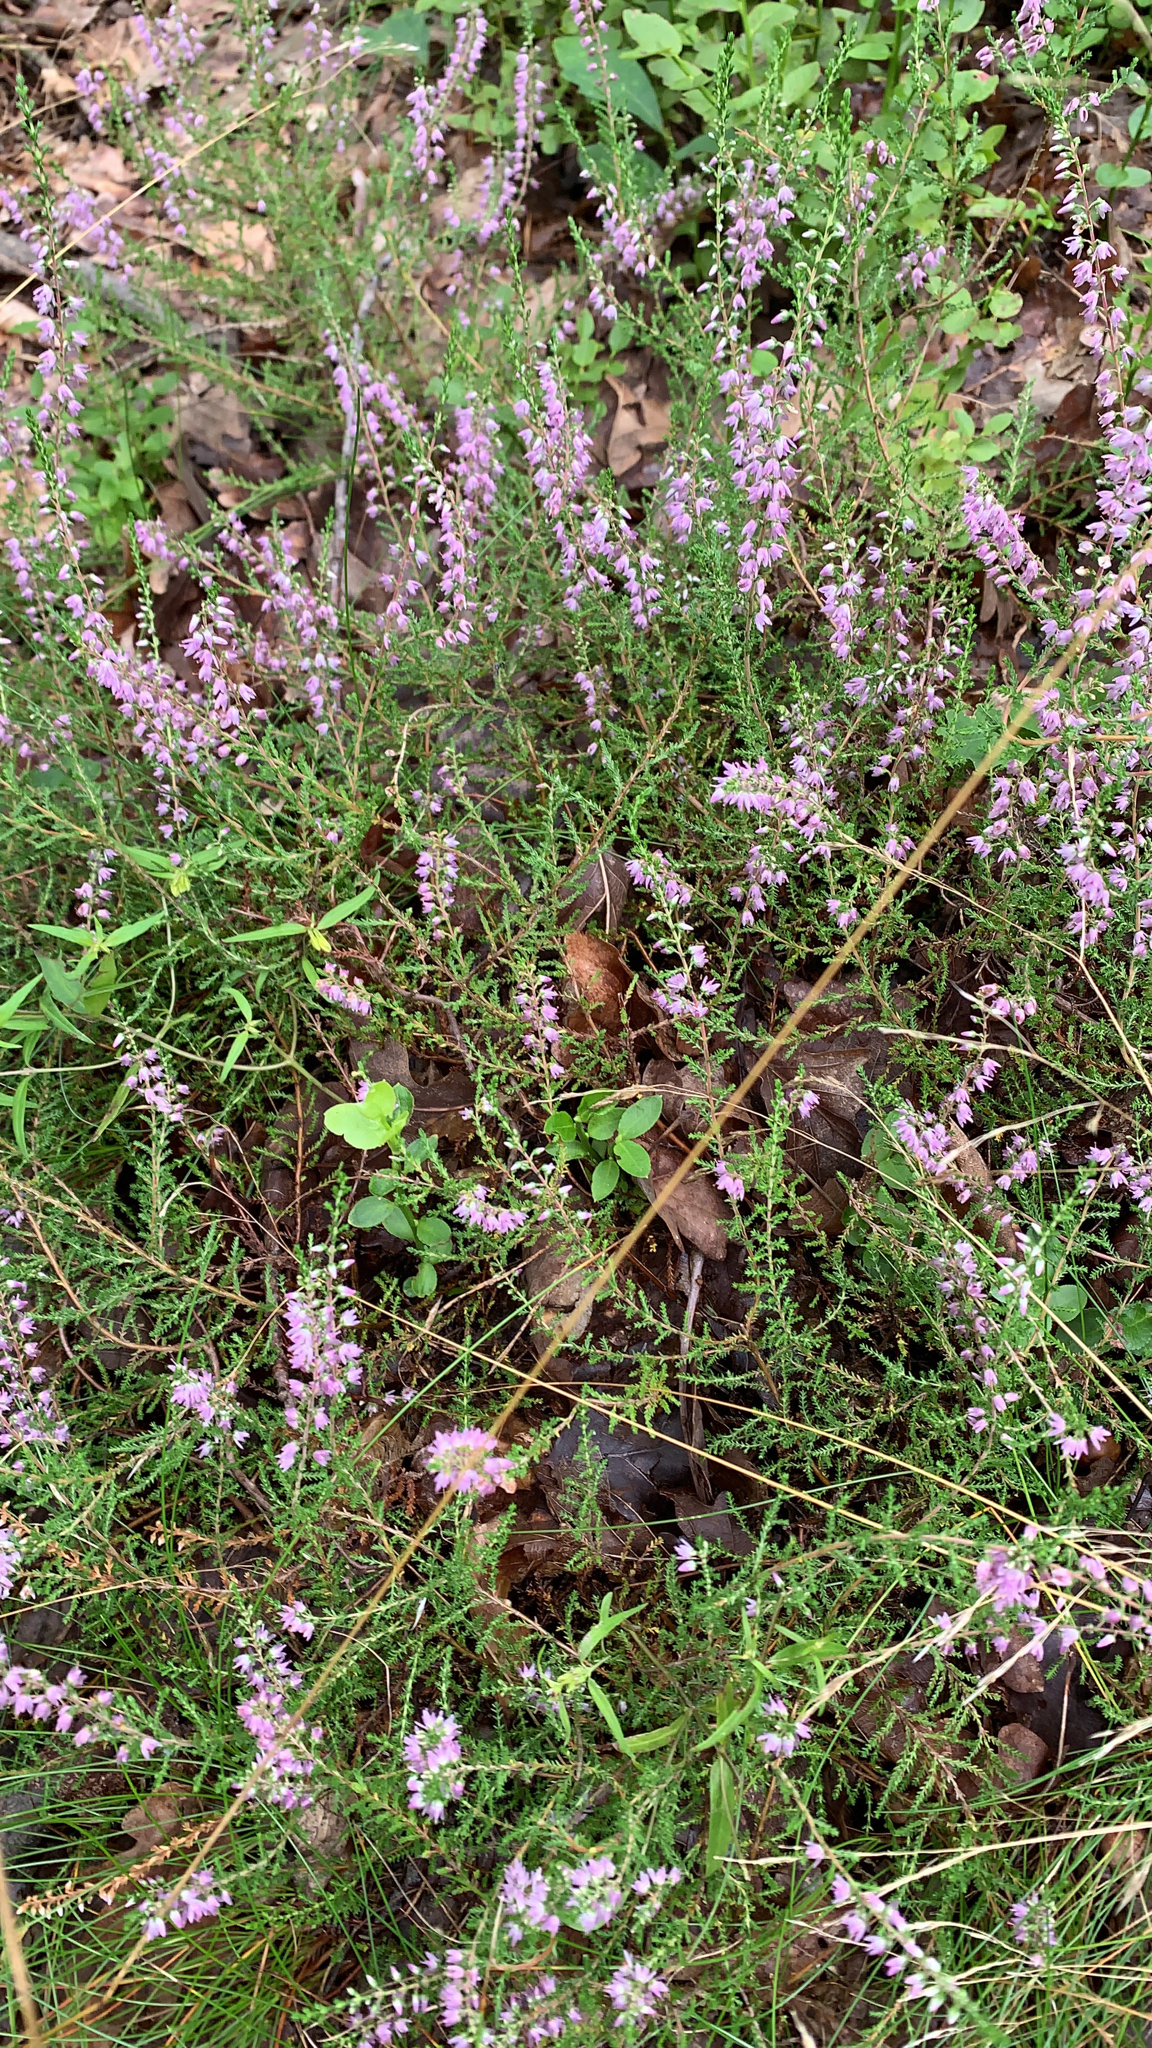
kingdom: Plantae
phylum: Tracheophyta
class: Magnoliopsida
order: Ericales
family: Ericaceae
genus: Calluna
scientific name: Calluna vulgaris
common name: Heather
